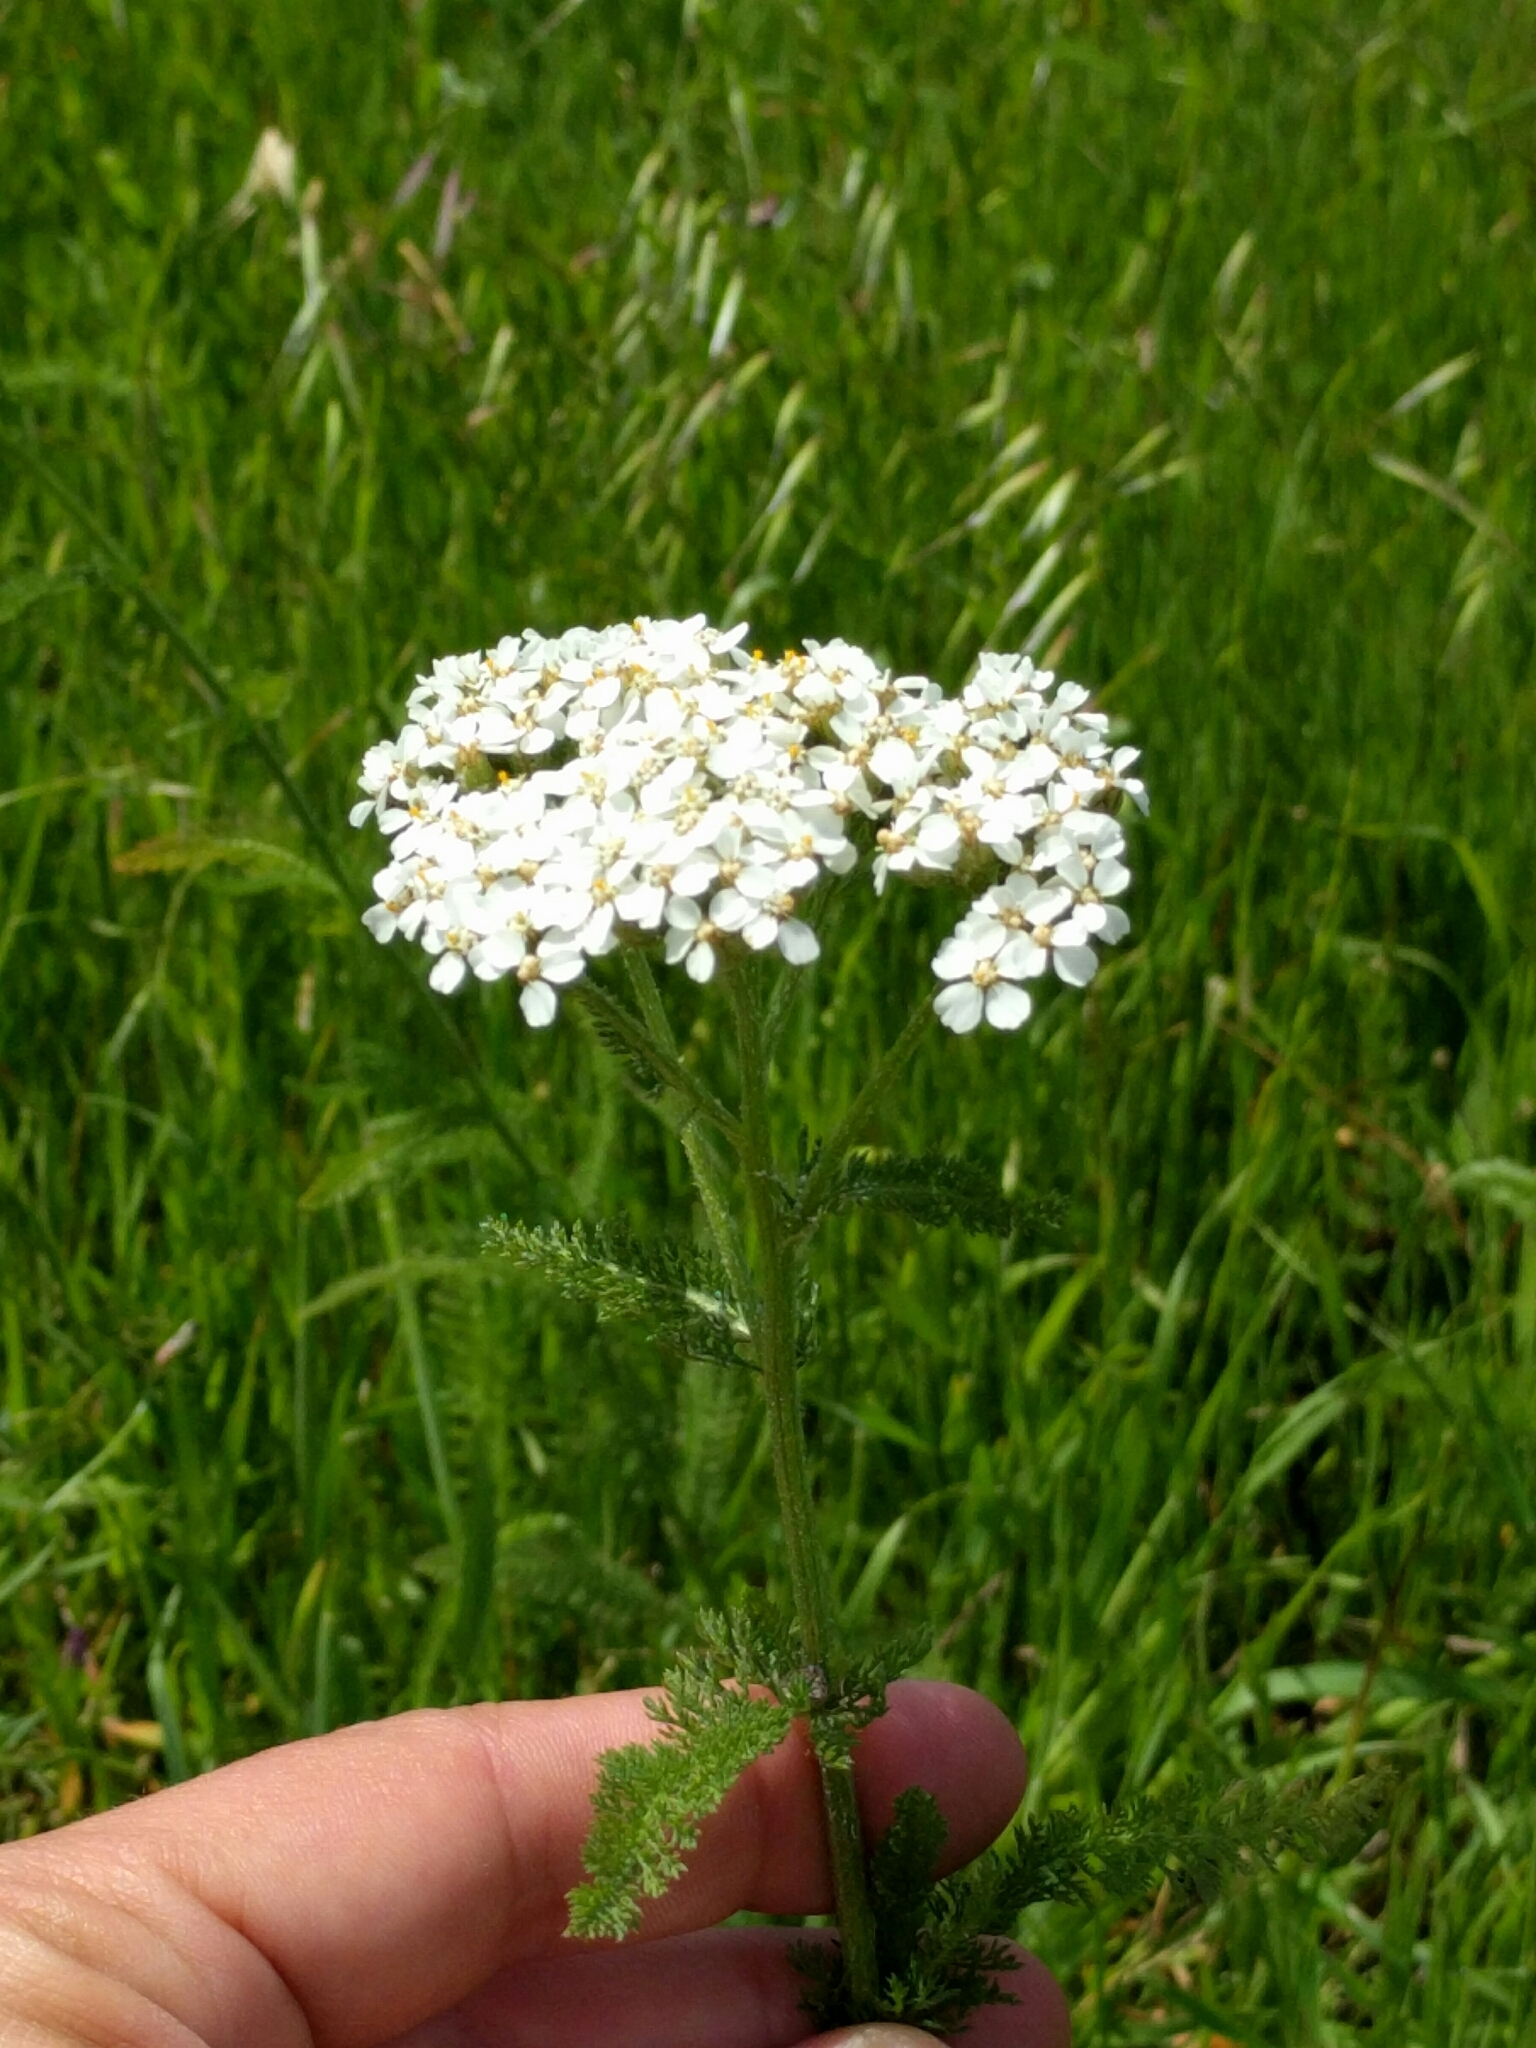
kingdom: Plantae
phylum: Tracheophyta
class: Magnoliopsida
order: Asterales
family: Asteraceae
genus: Achillea
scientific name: Achillea millefolium
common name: Yarrow
